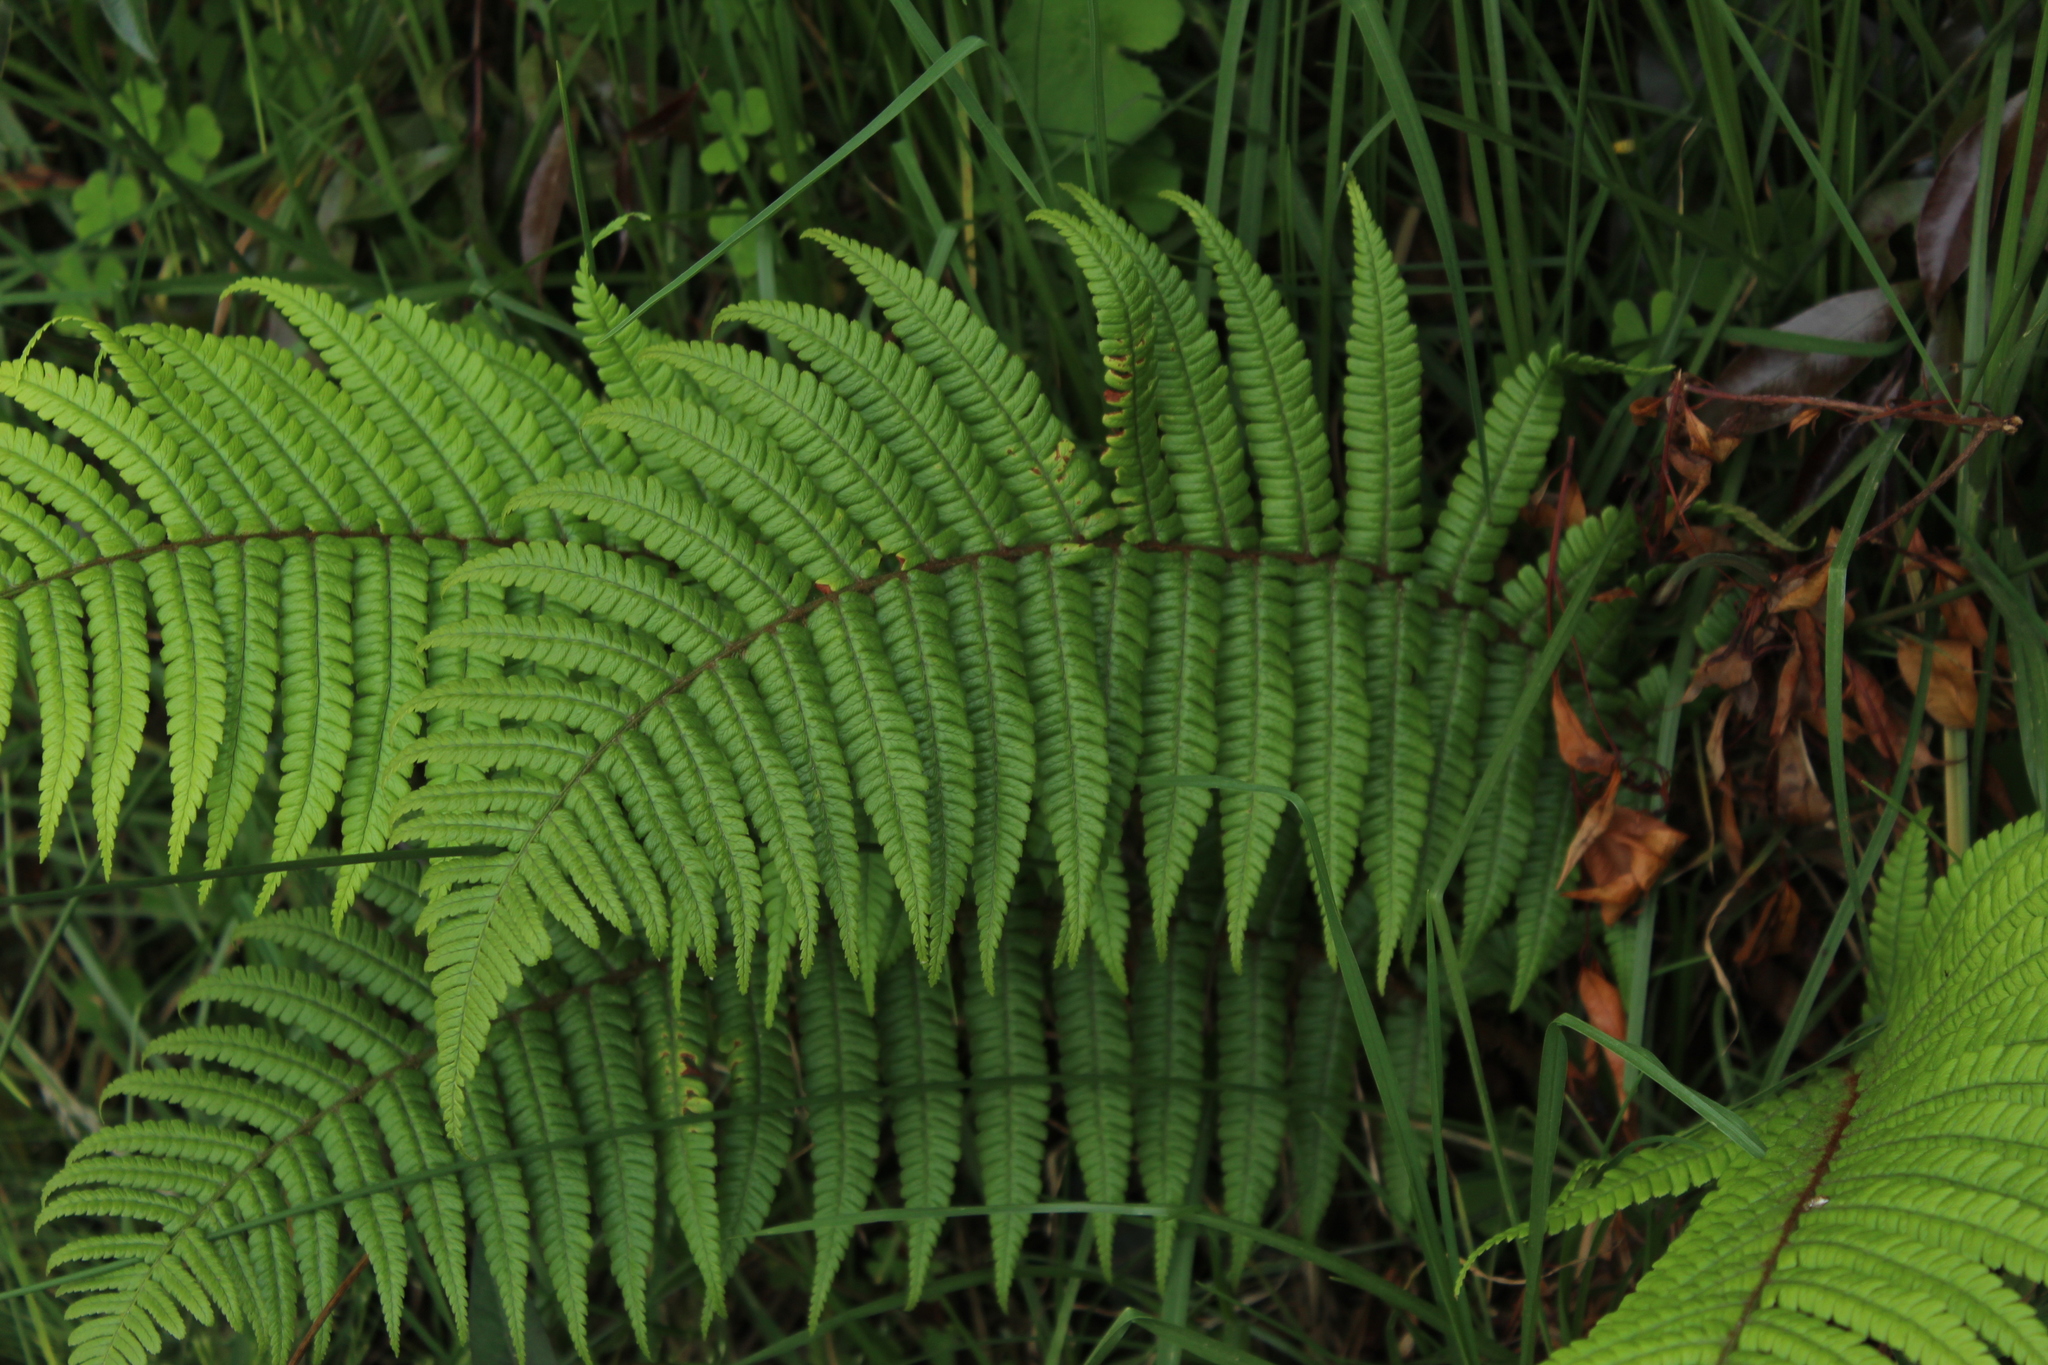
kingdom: Plantae
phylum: Tracheophyta
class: Polypodiopsida
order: Polypodiales
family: Dryopteridaceae
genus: Dryopteris
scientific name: Dryopteris wallichiana
